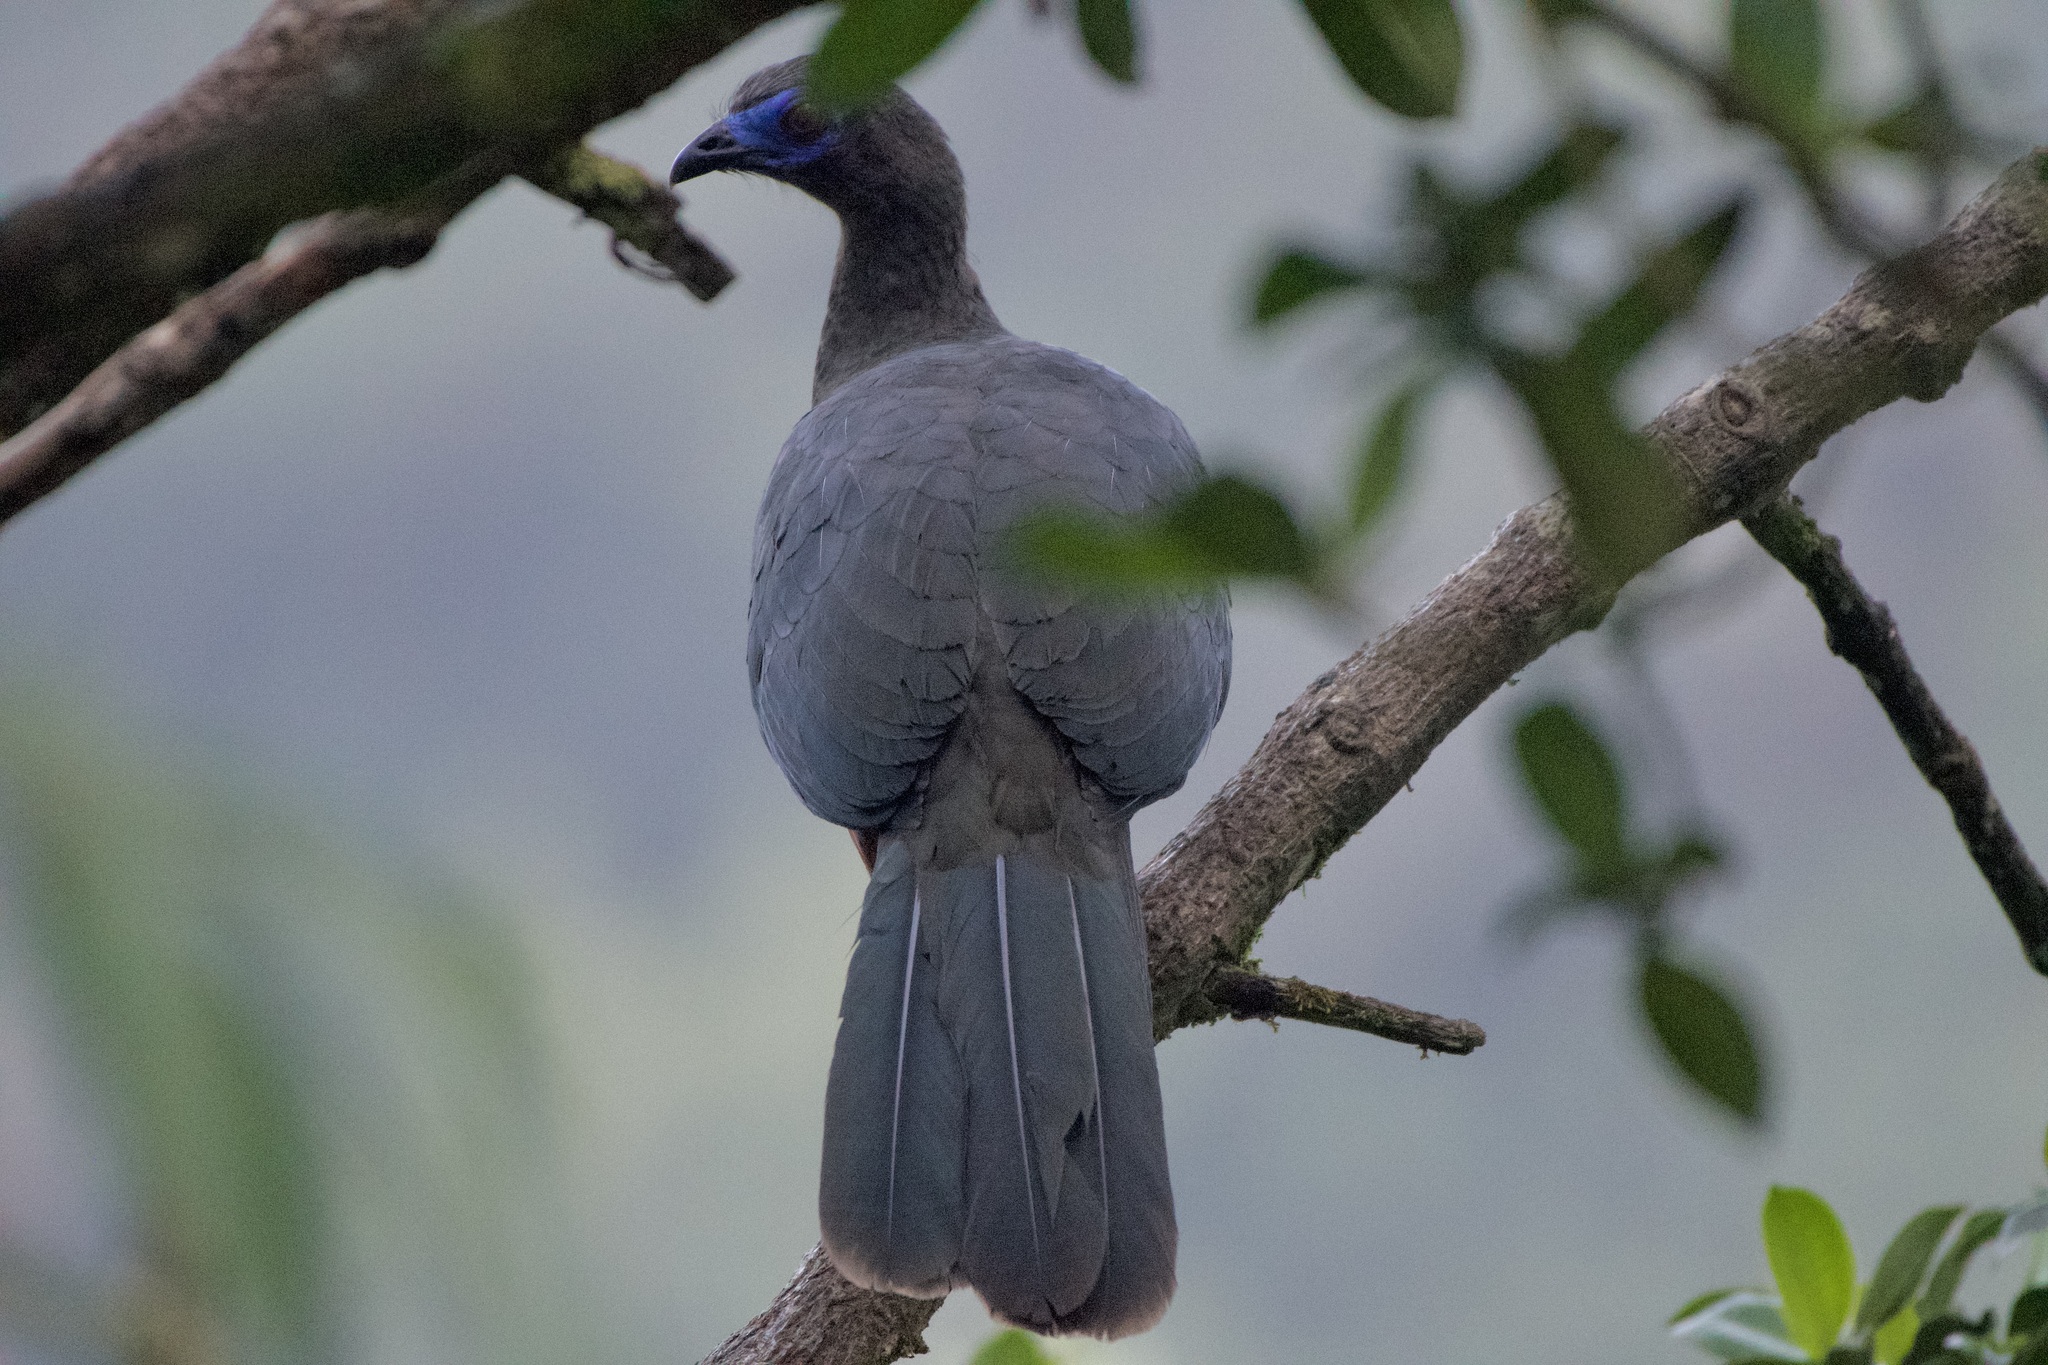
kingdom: Animalia
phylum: Chordata
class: Aves
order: Galliformes
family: Cracidae
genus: Chamaepetes
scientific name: Chamaepetes goudotii
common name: Sickle-winged guan
